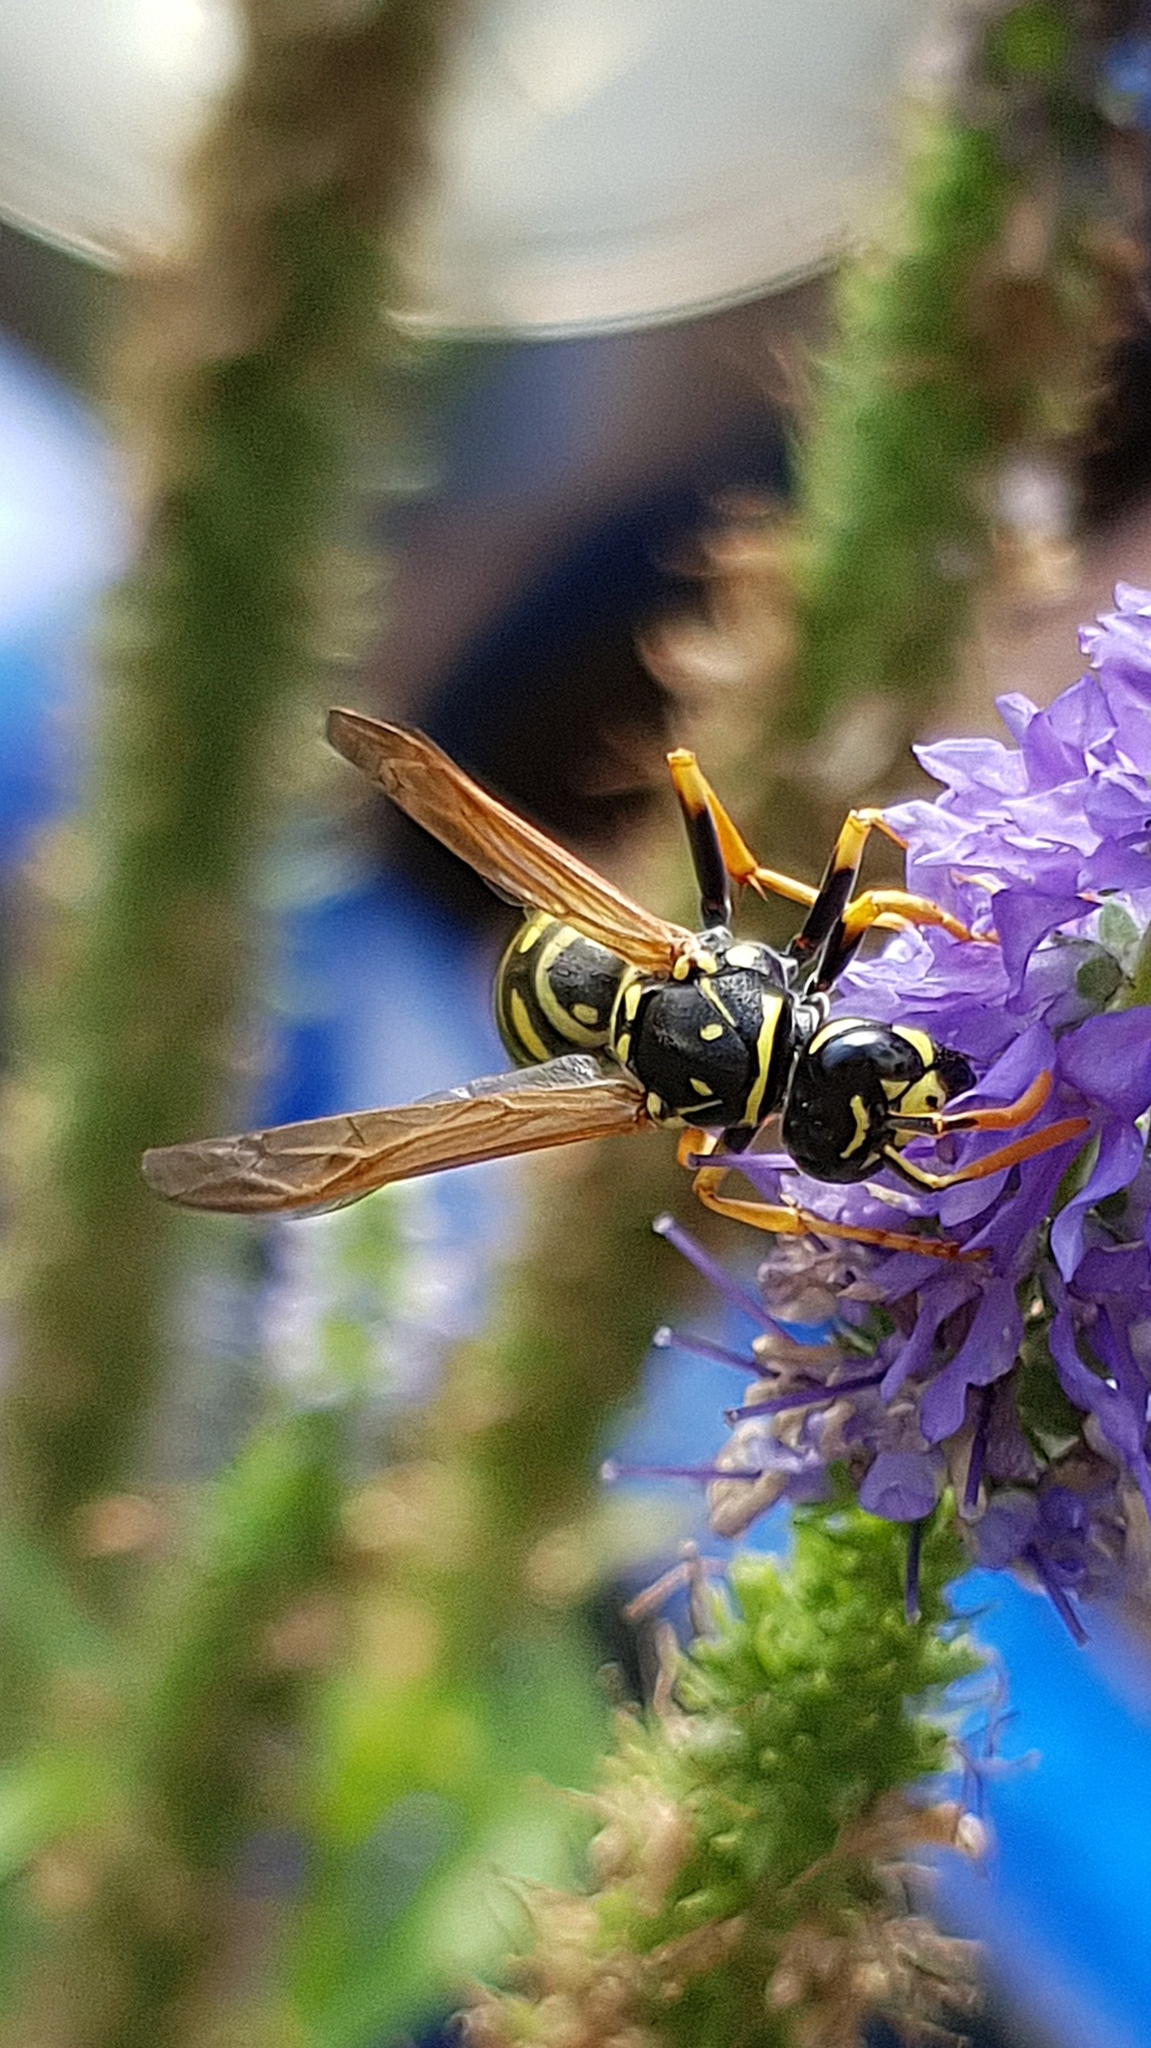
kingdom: Animalia
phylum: Arthropoda
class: Insecta
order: Hymenoptera
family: Eumenidae
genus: Polistes
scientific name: Polistes dominula
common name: Paper wasp
